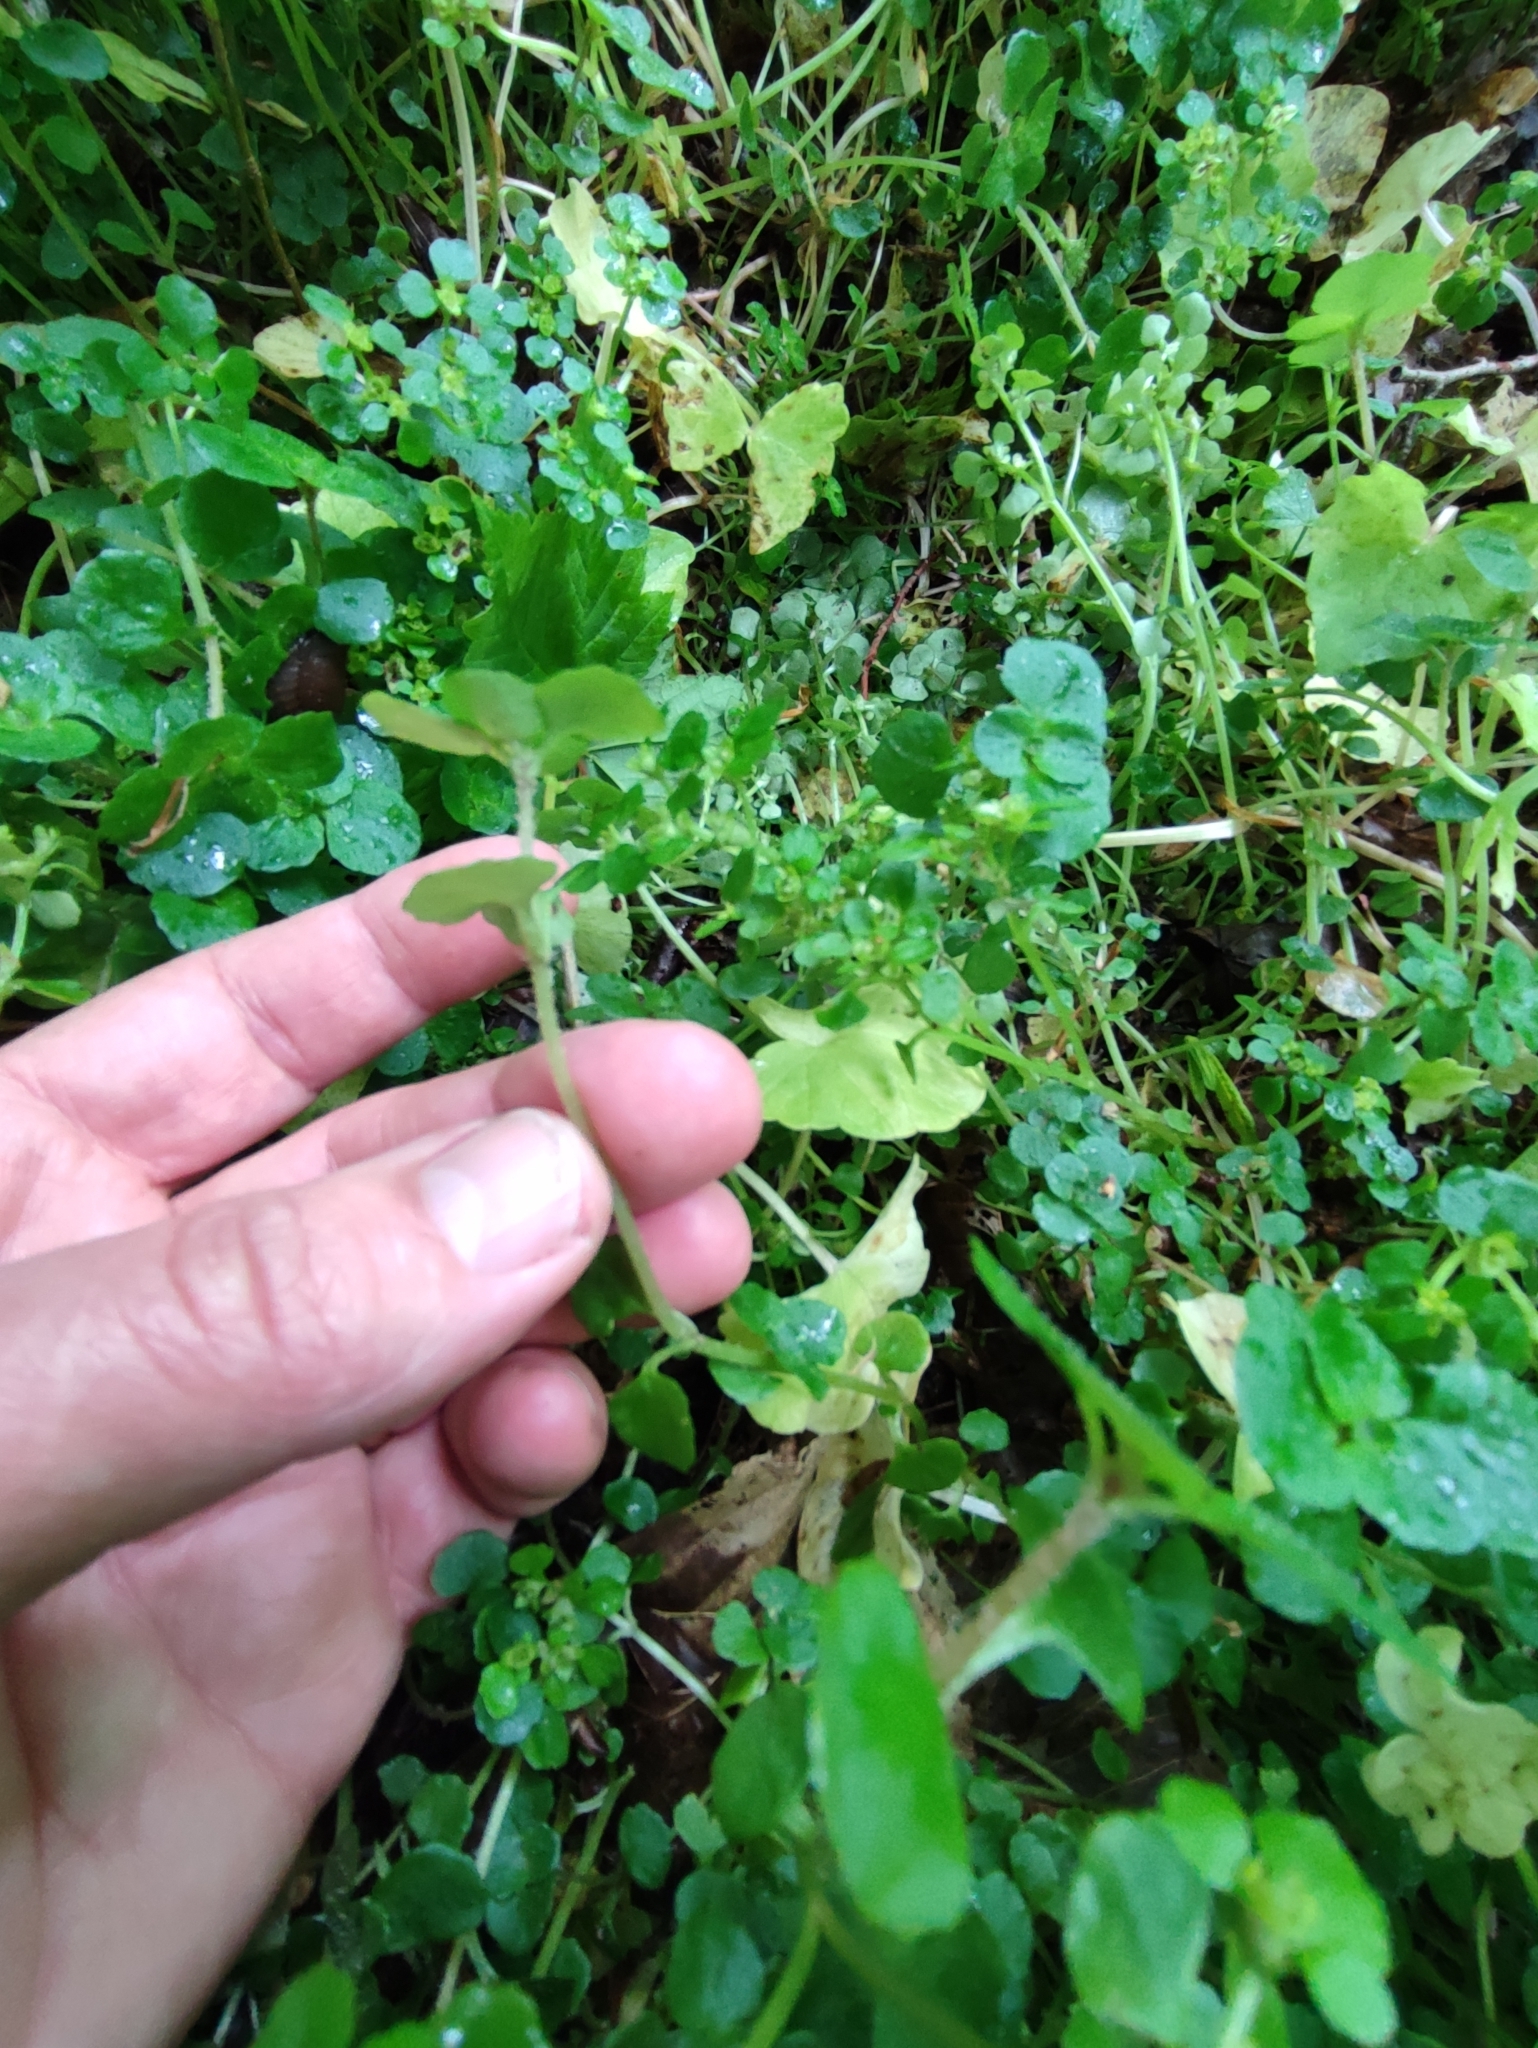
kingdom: Plantae
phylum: Tracheophyta
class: Magnoliopsida
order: Saxifragales
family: Saxifragaceae
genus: Chrysosplenium
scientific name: Chrysosplenium oppositifolium
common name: Opposite-leaved golden-saxifrage
